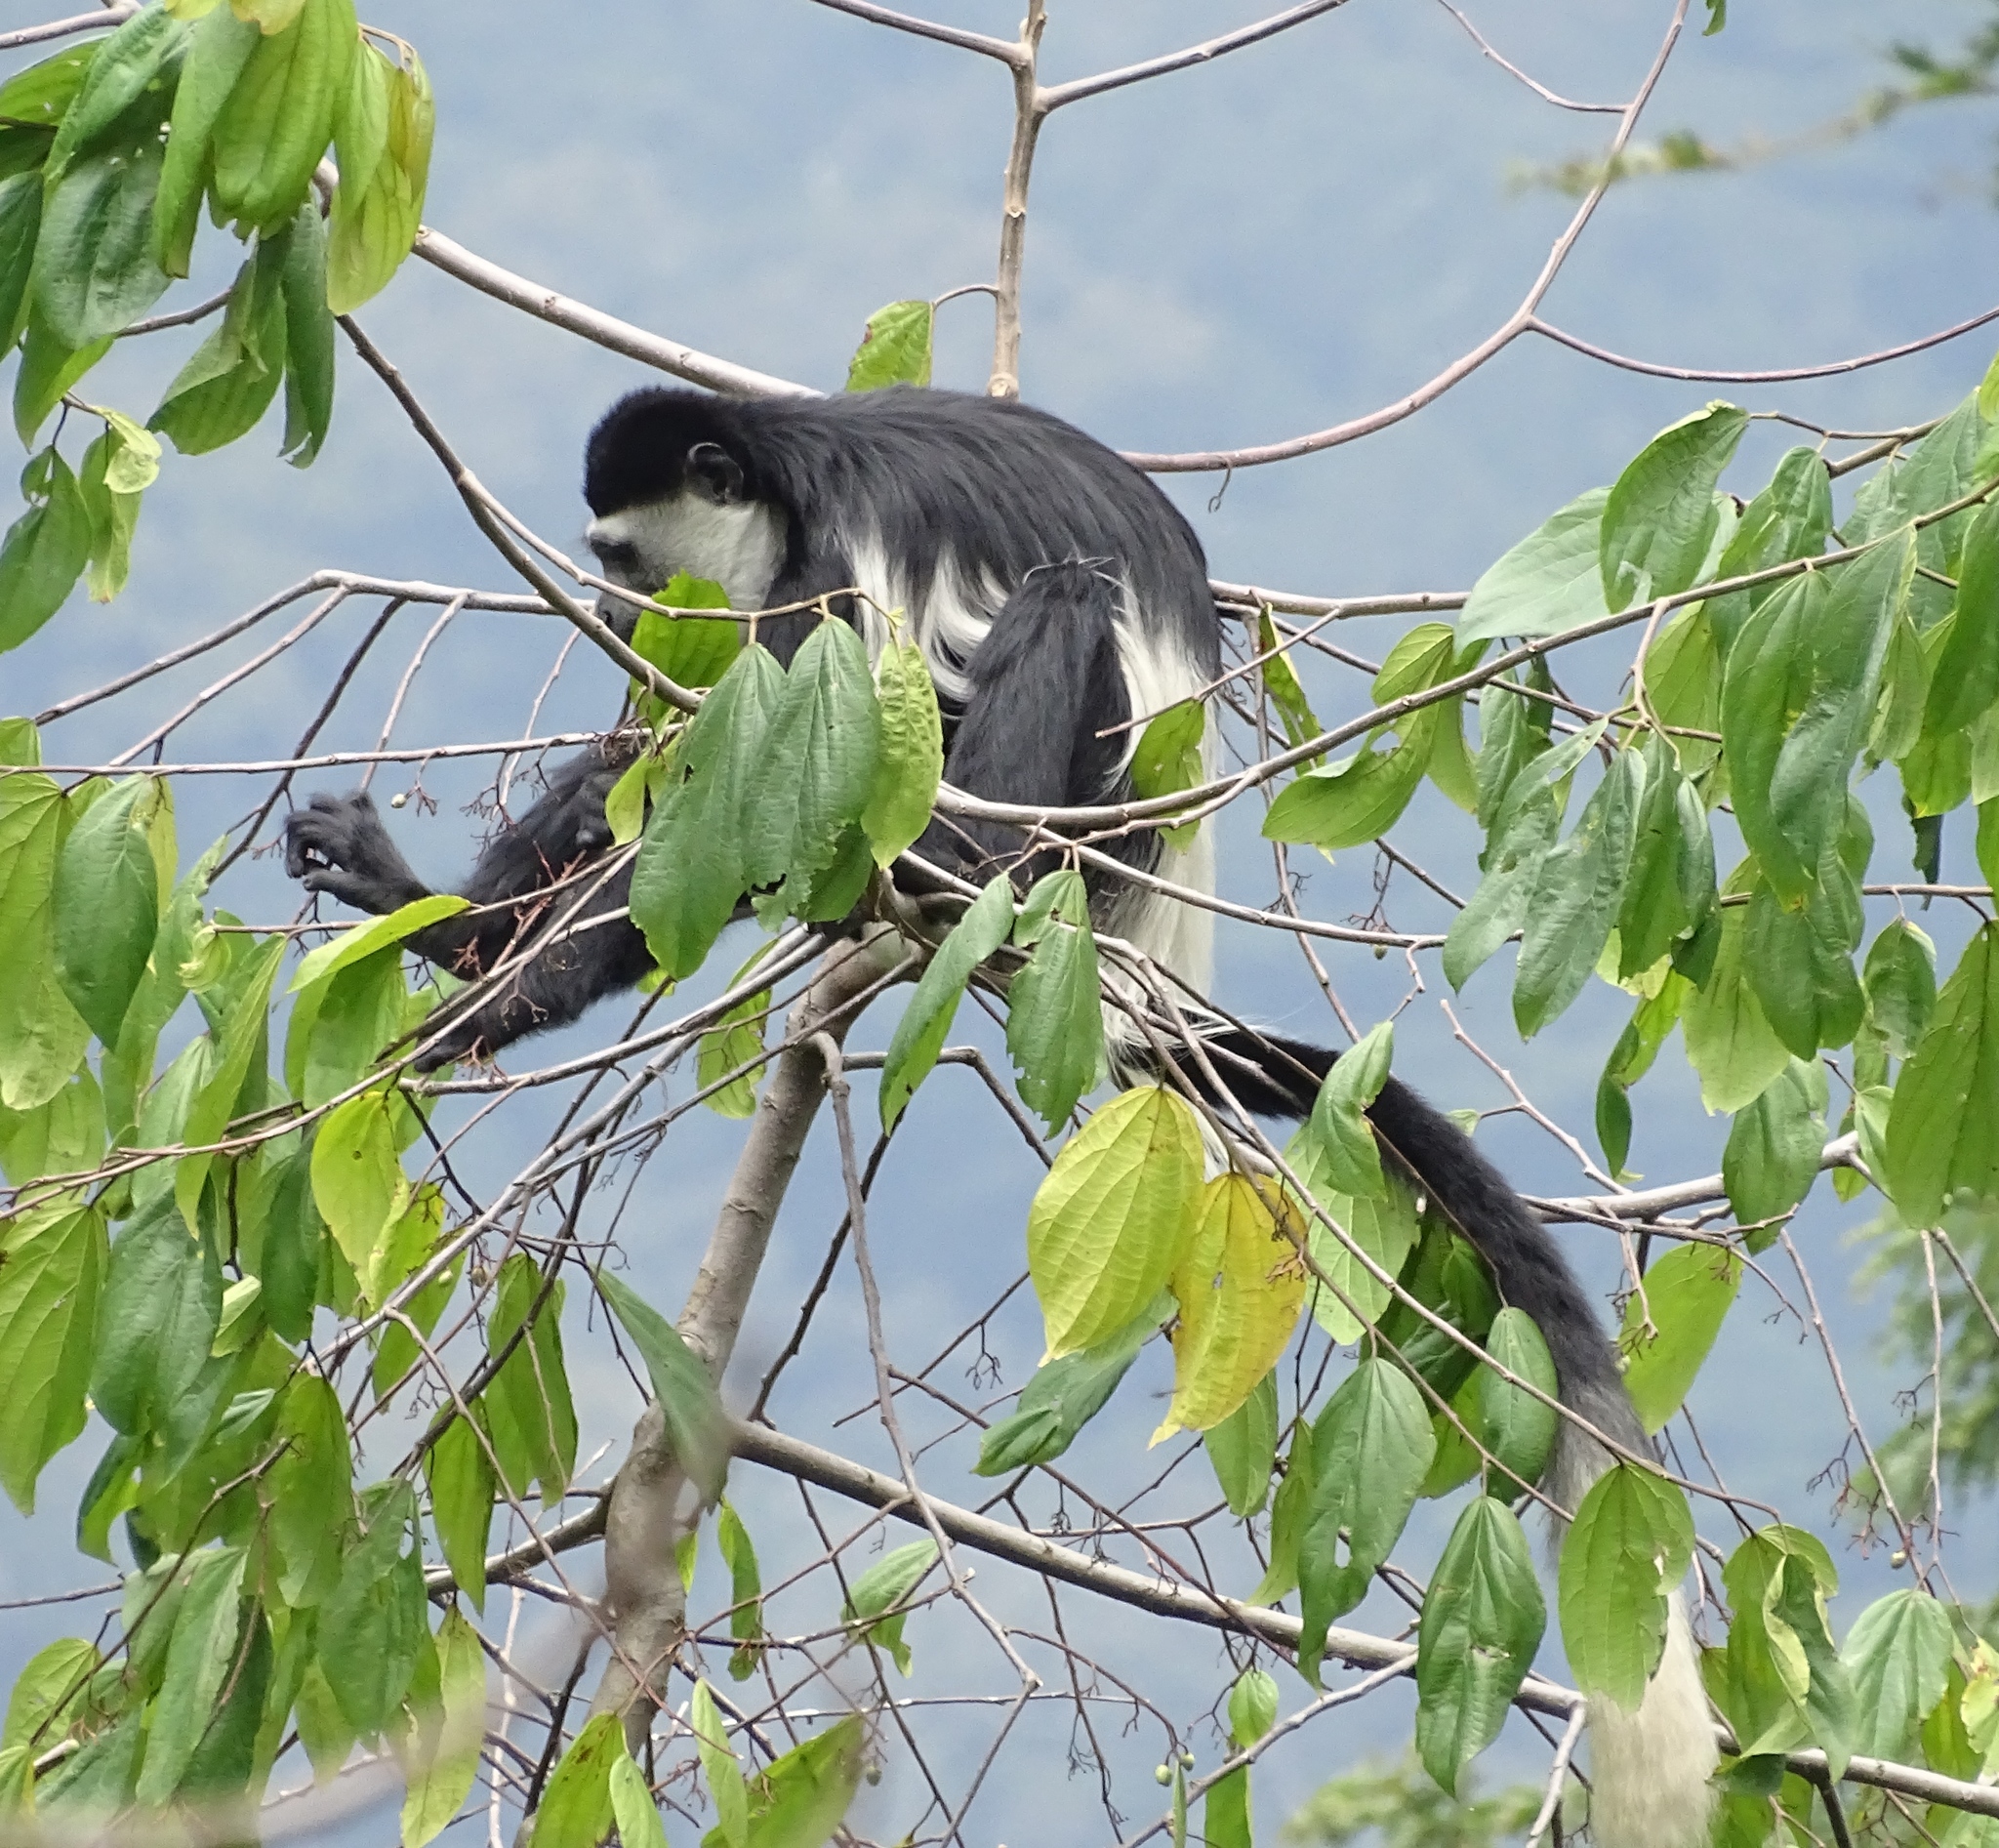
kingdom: Animalia
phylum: Chordata
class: Mammalia
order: Primates
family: Cercopithecidae
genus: Colobus
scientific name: Colobus guereza
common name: Mantled guereza
